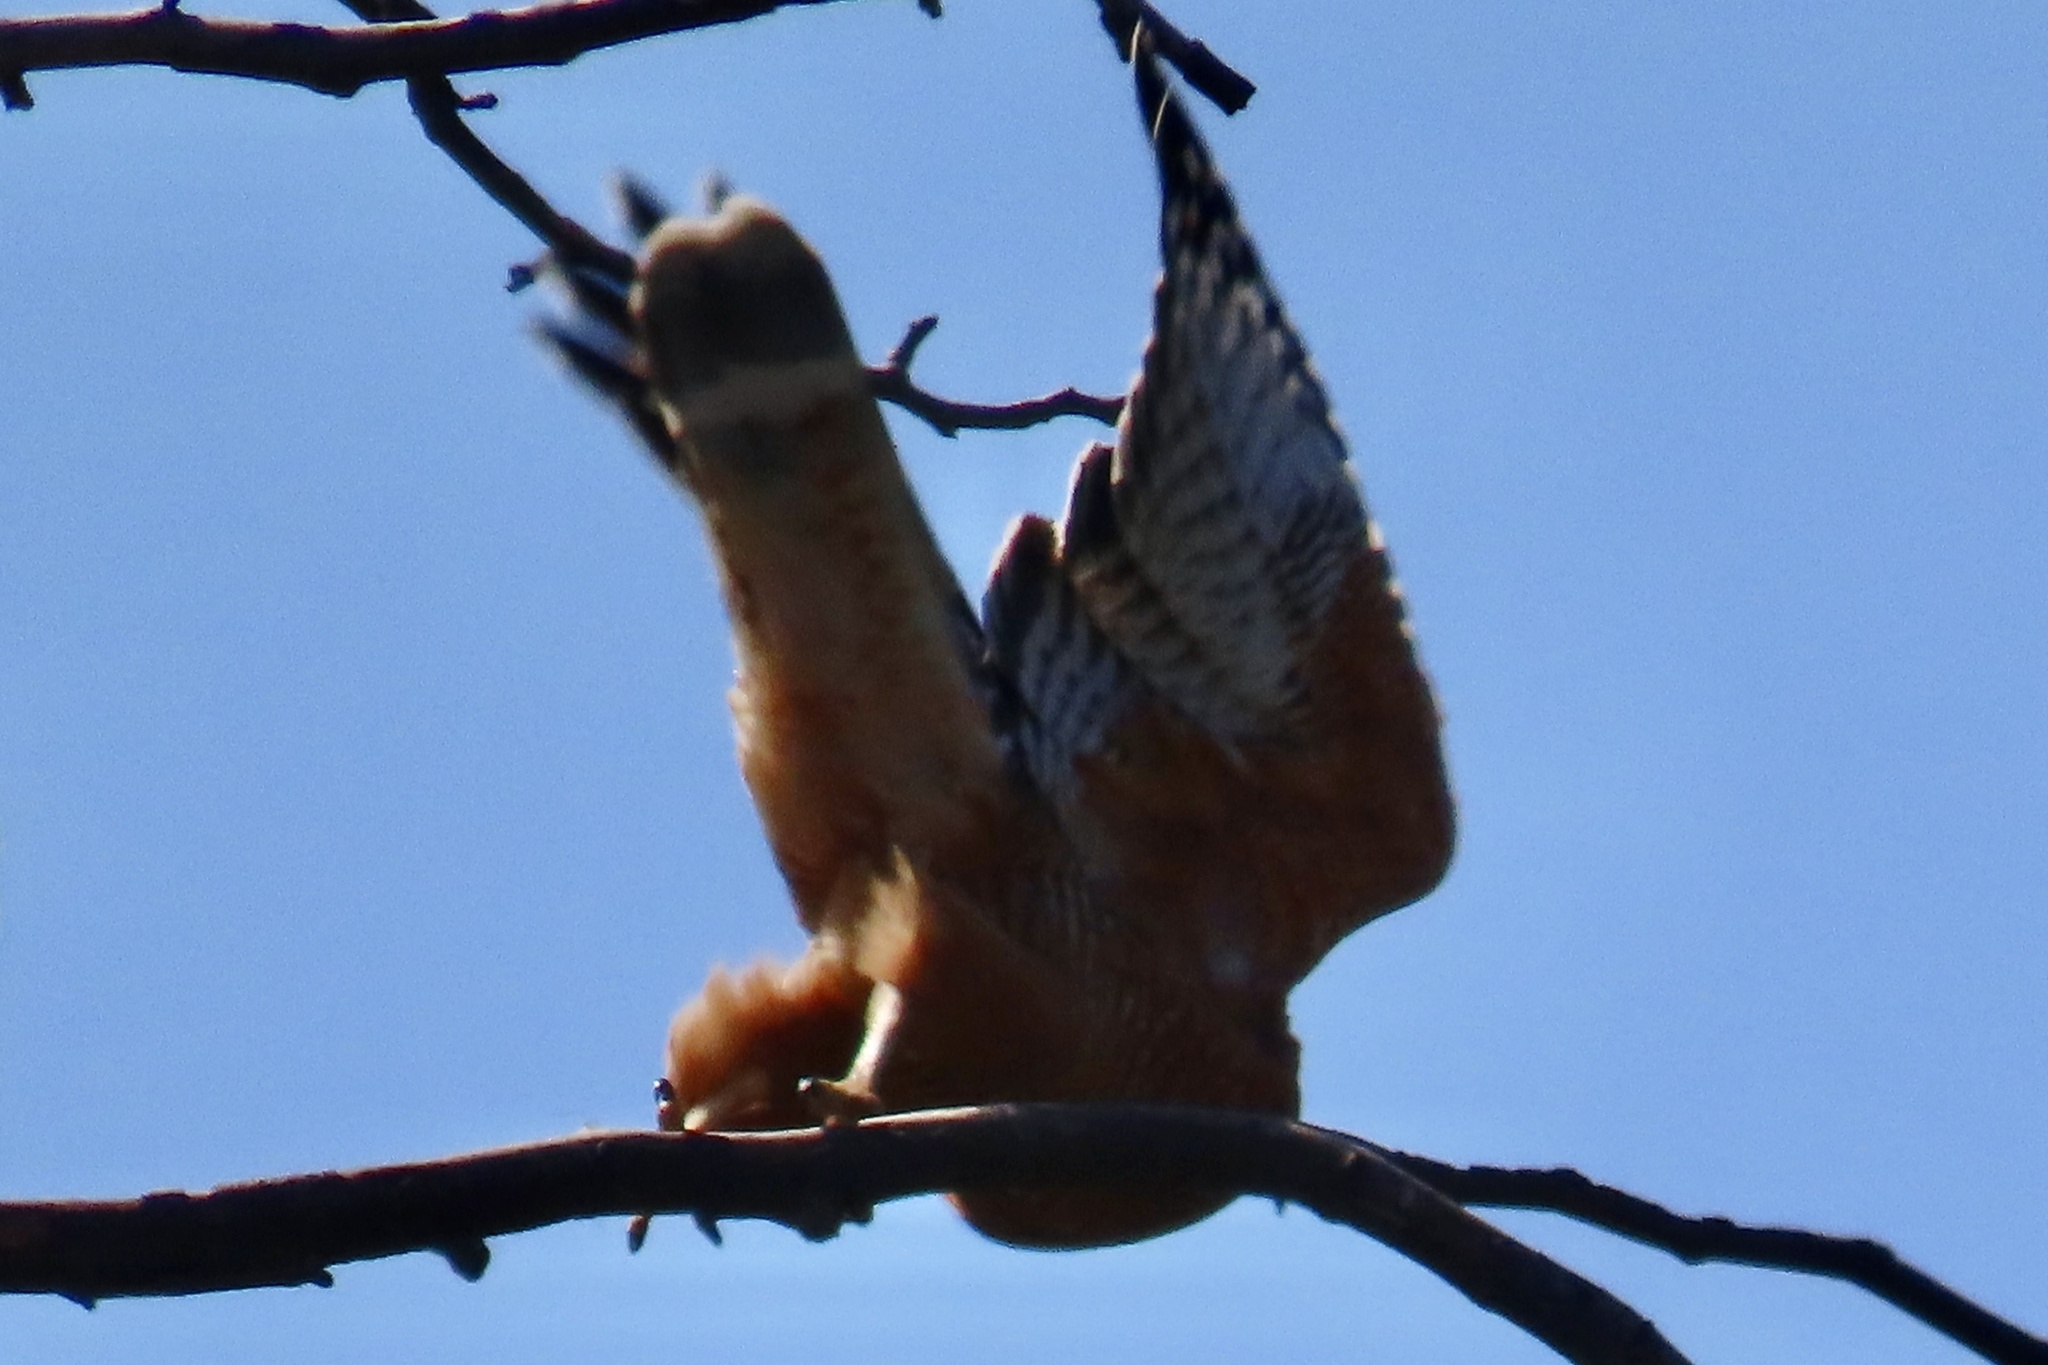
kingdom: Animalia
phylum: Chordata
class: Aves
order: Accipitriformes
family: Accipitridae
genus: Buteo
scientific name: Buteo lineatus
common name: Red-shouldered hawk
